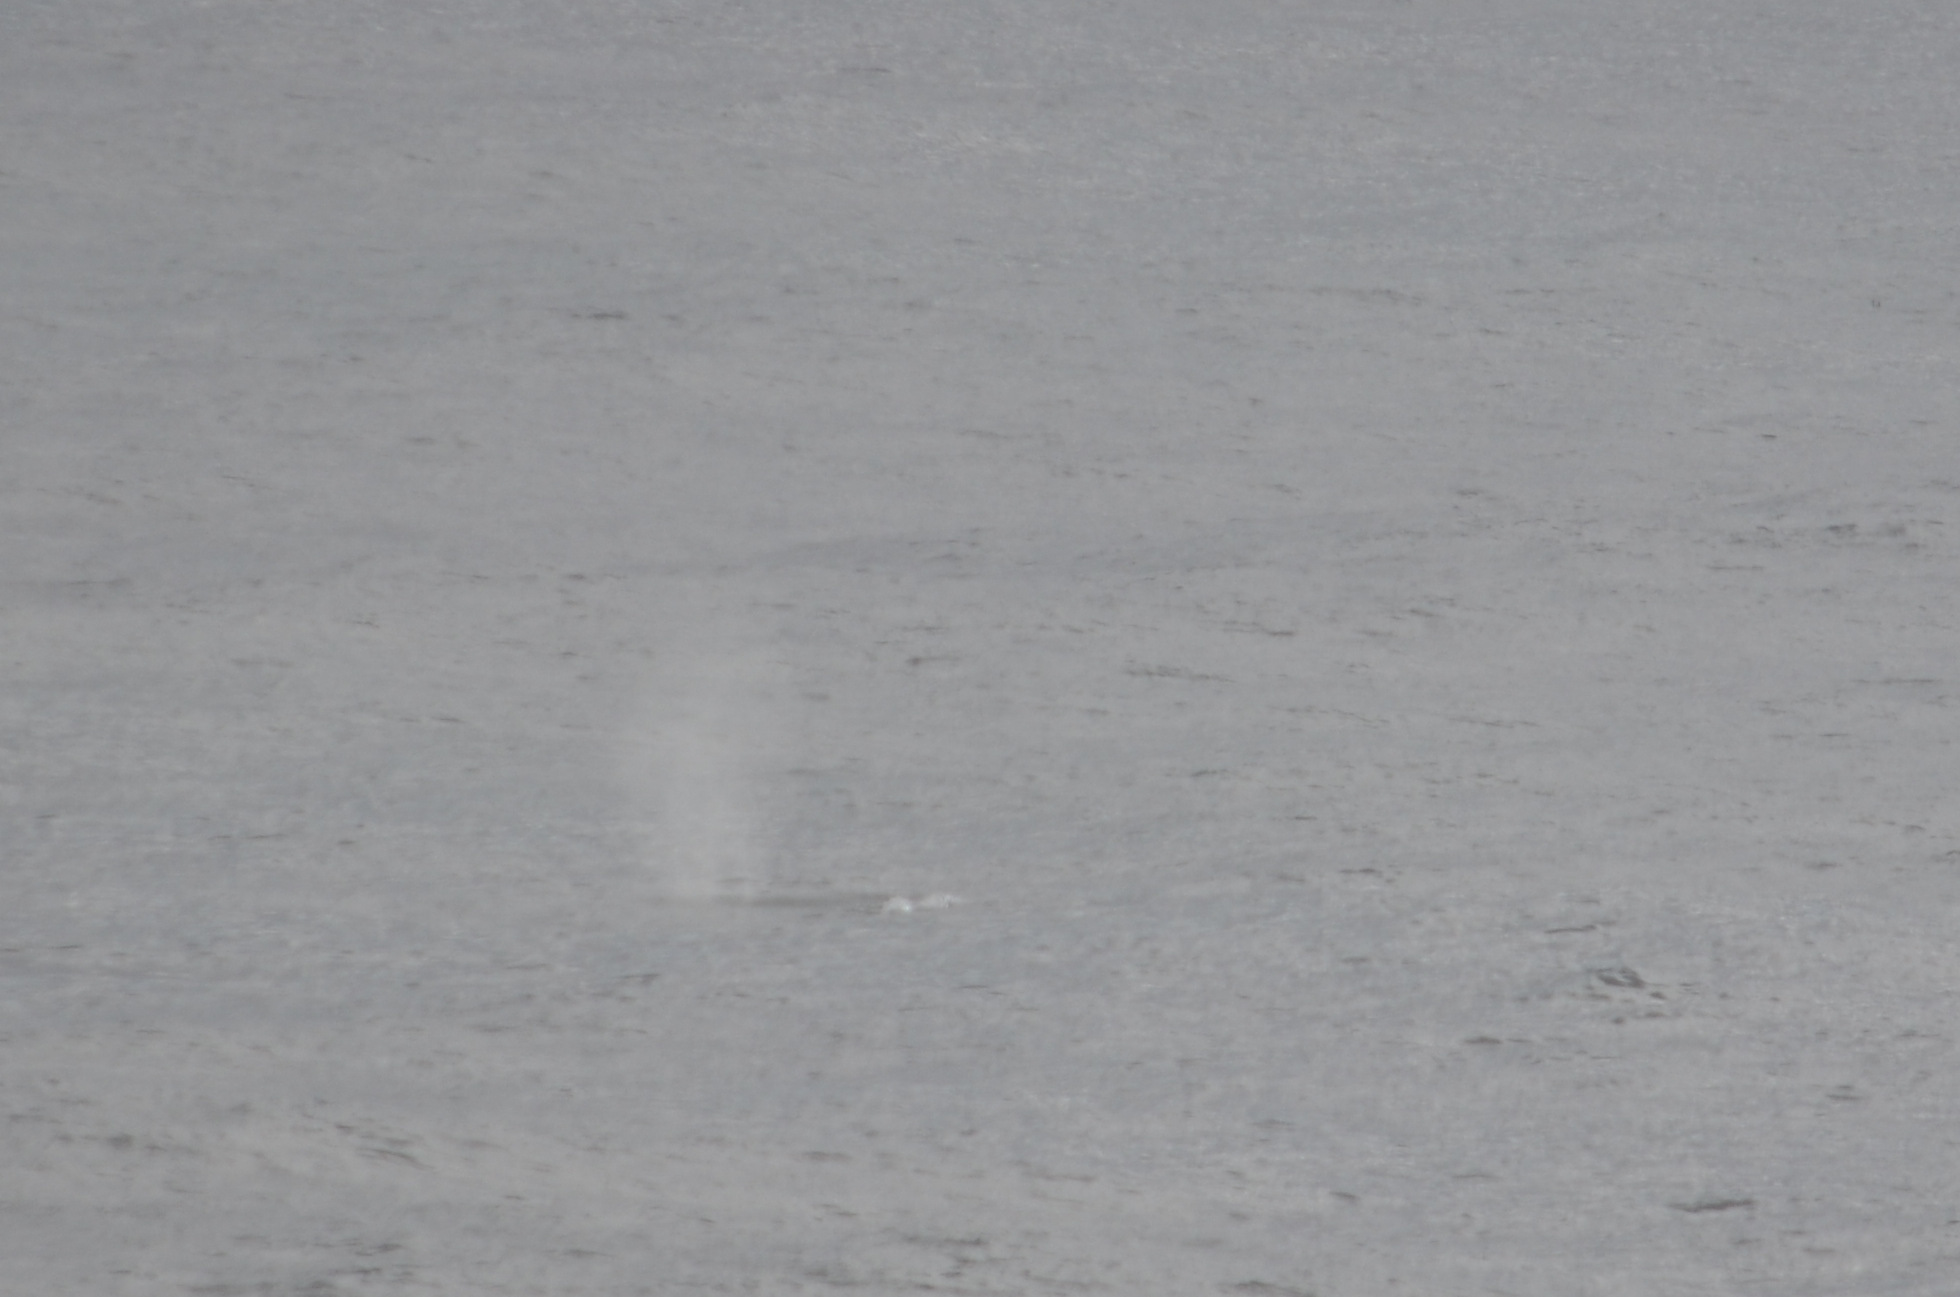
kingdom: Animalia
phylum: Chordata
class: Mammalia
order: Cetacea
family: Eschrichtiidae
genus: Eschrichtius
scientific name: Eschrichtius robustus
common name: Gray whale
